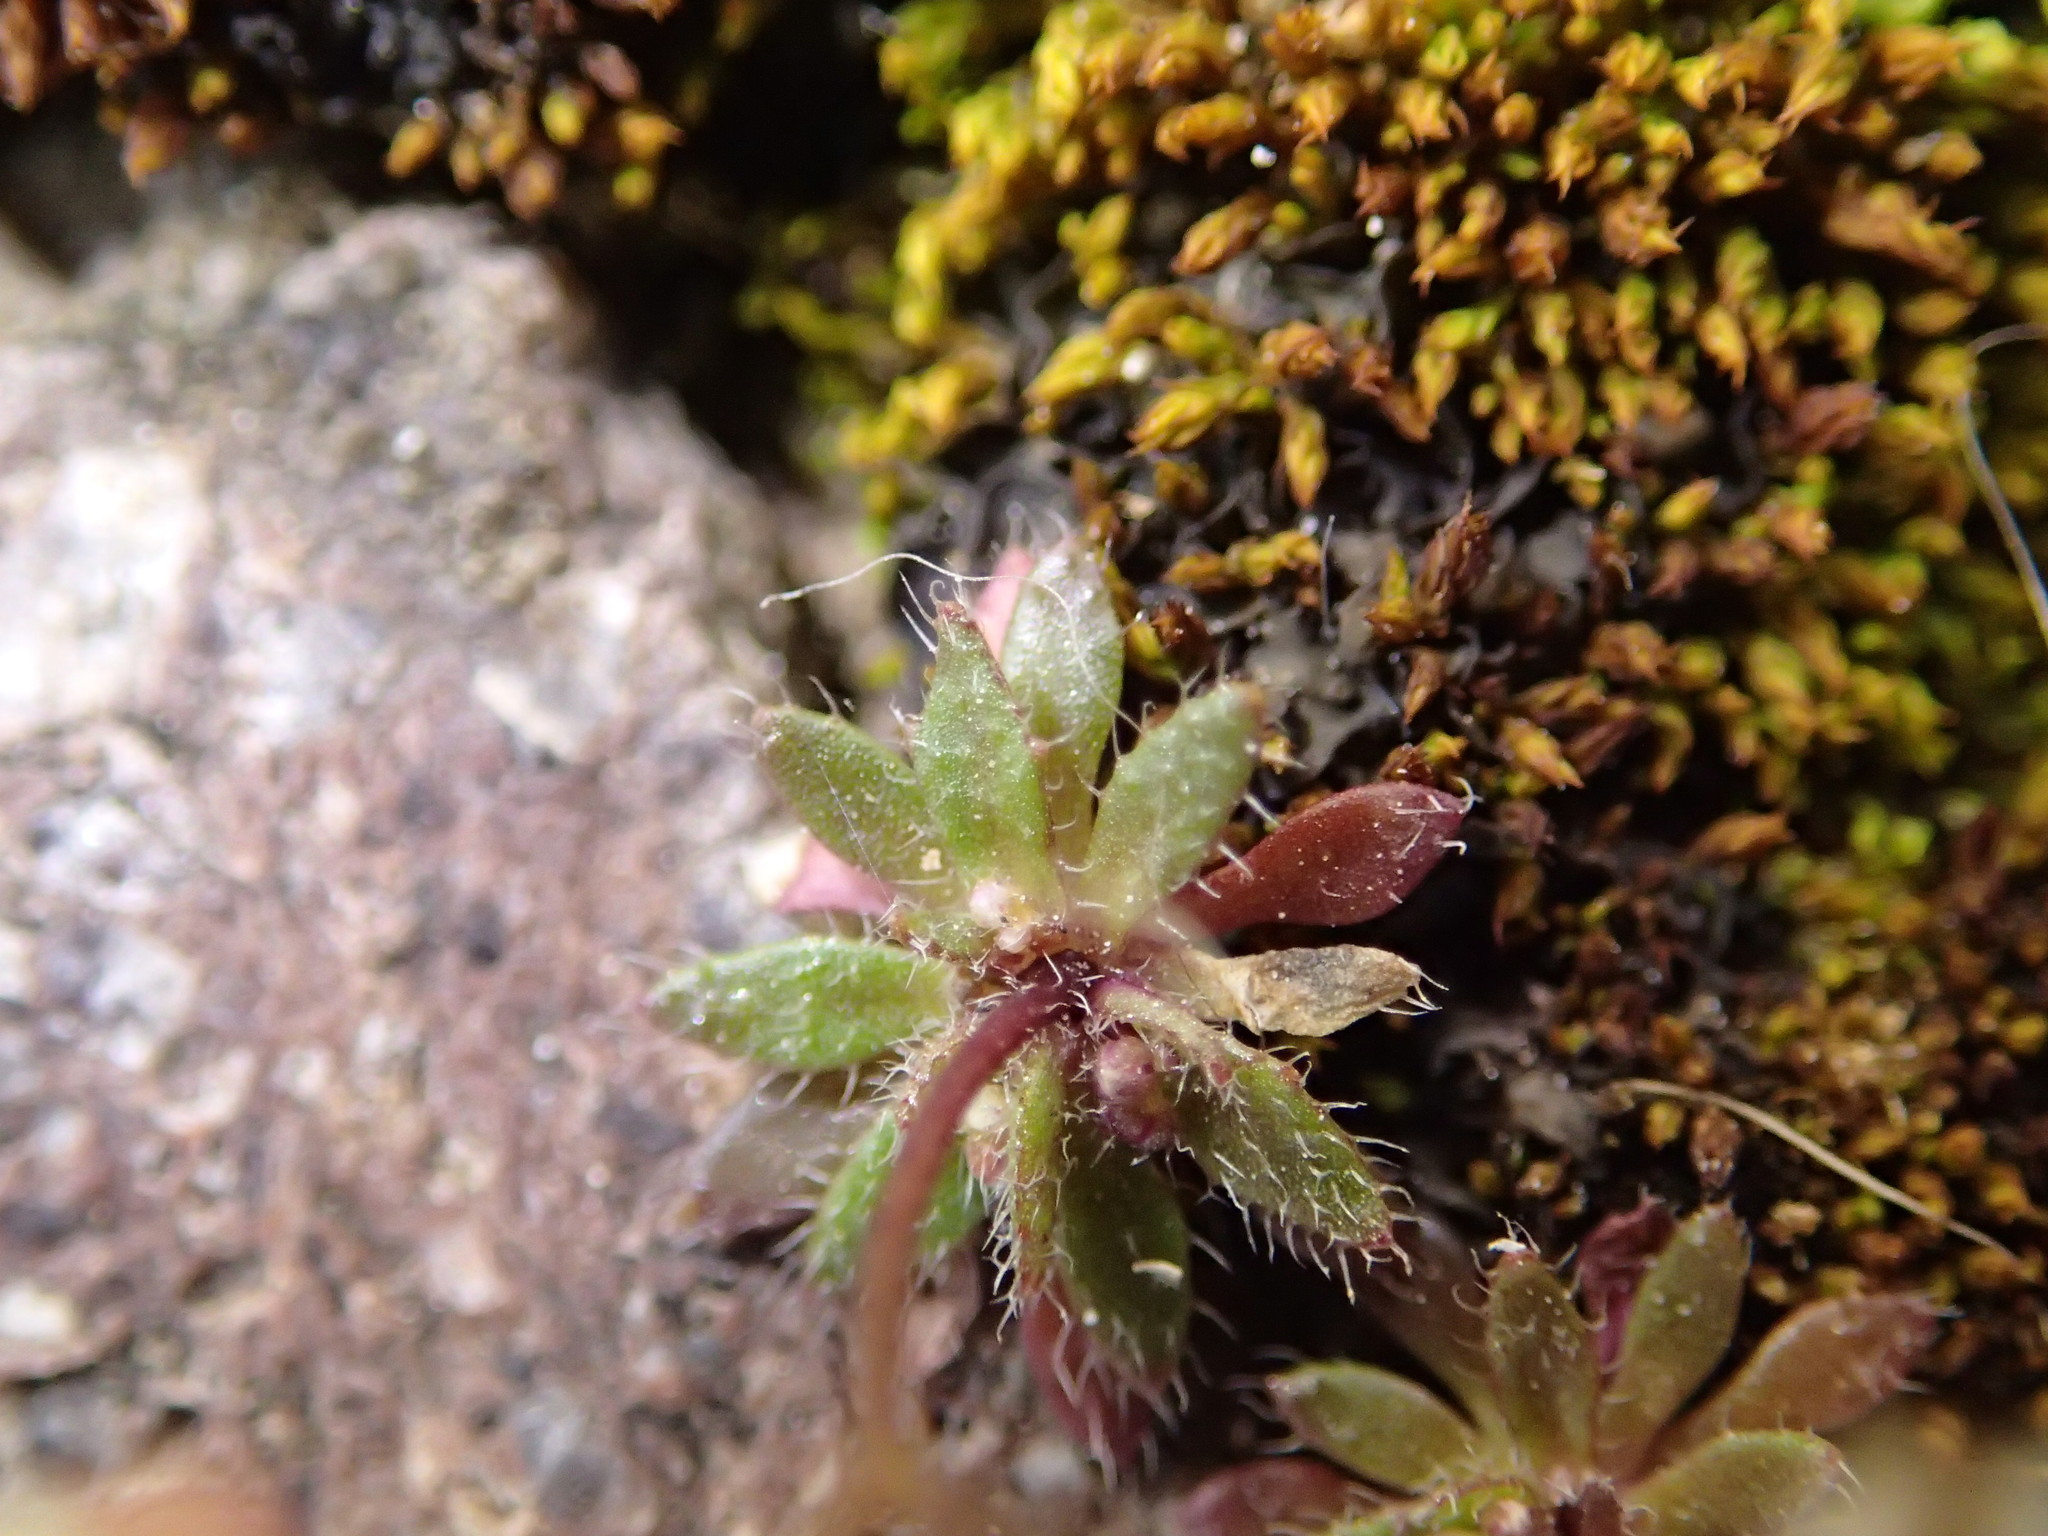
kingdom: Plantae
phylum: Tracheophyta
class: Magnoliopsida
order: Brassicales
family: Brassicaceae
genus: Draba
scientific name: Draba verna
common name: Spring draba
